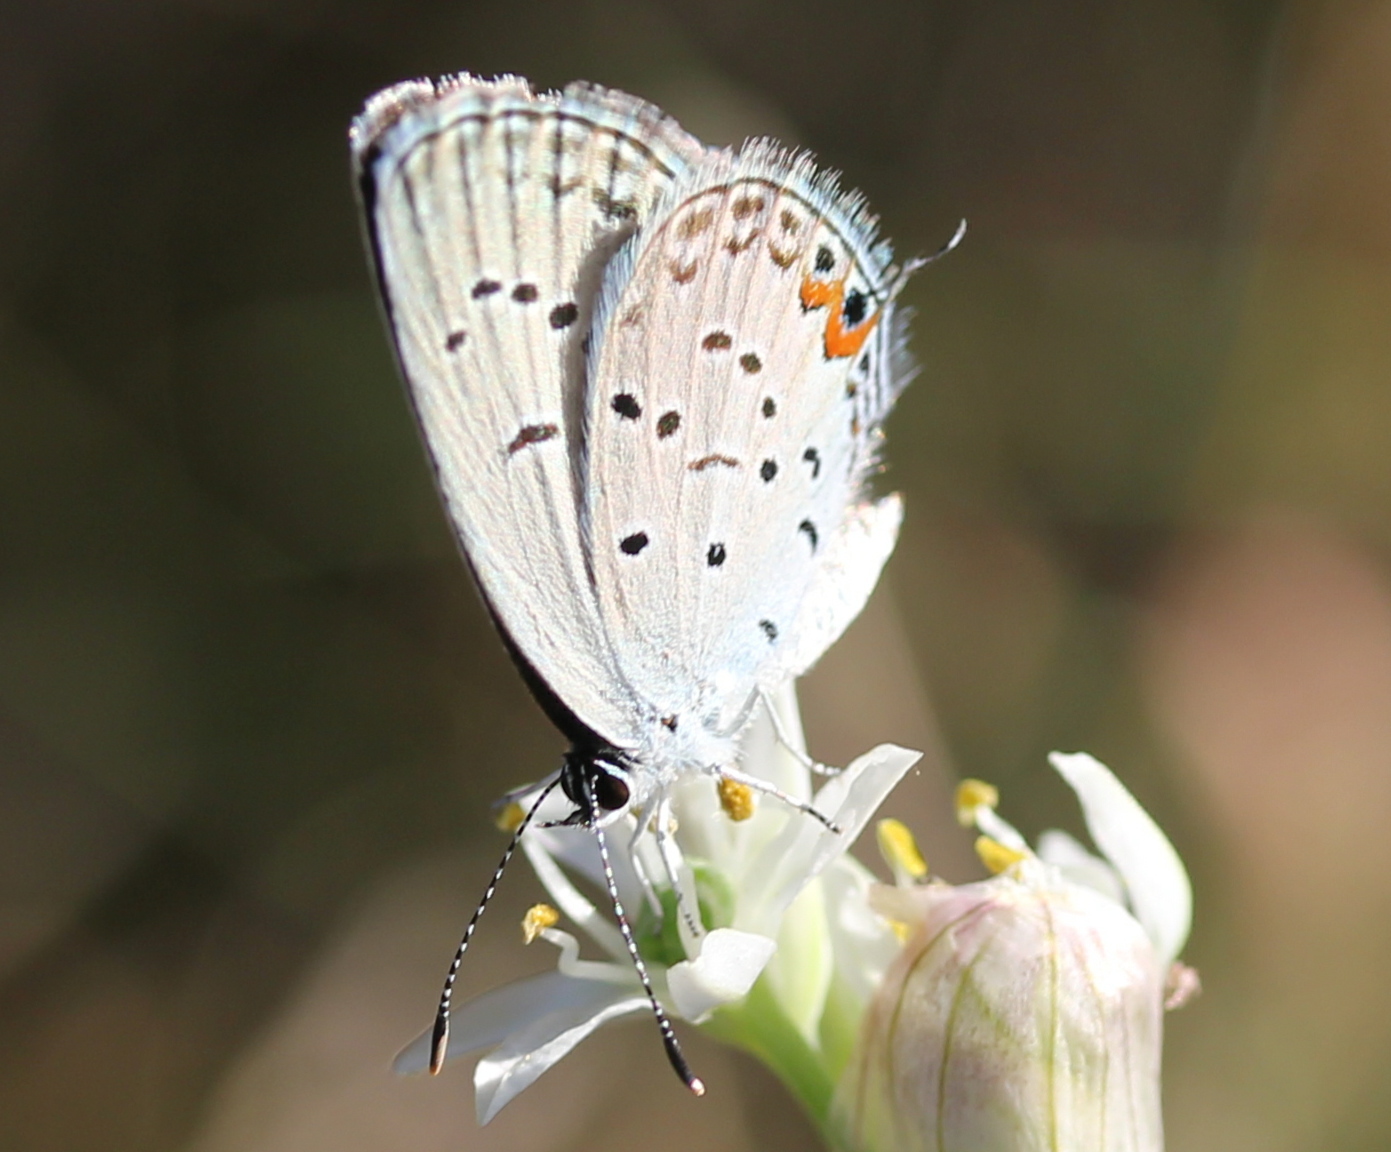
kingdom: Animalia
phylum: Arthropoda
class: Insecta
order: Lepidoptera
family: Lycaenidae
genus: Elkalyce
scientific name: Elkalyce comyntas
